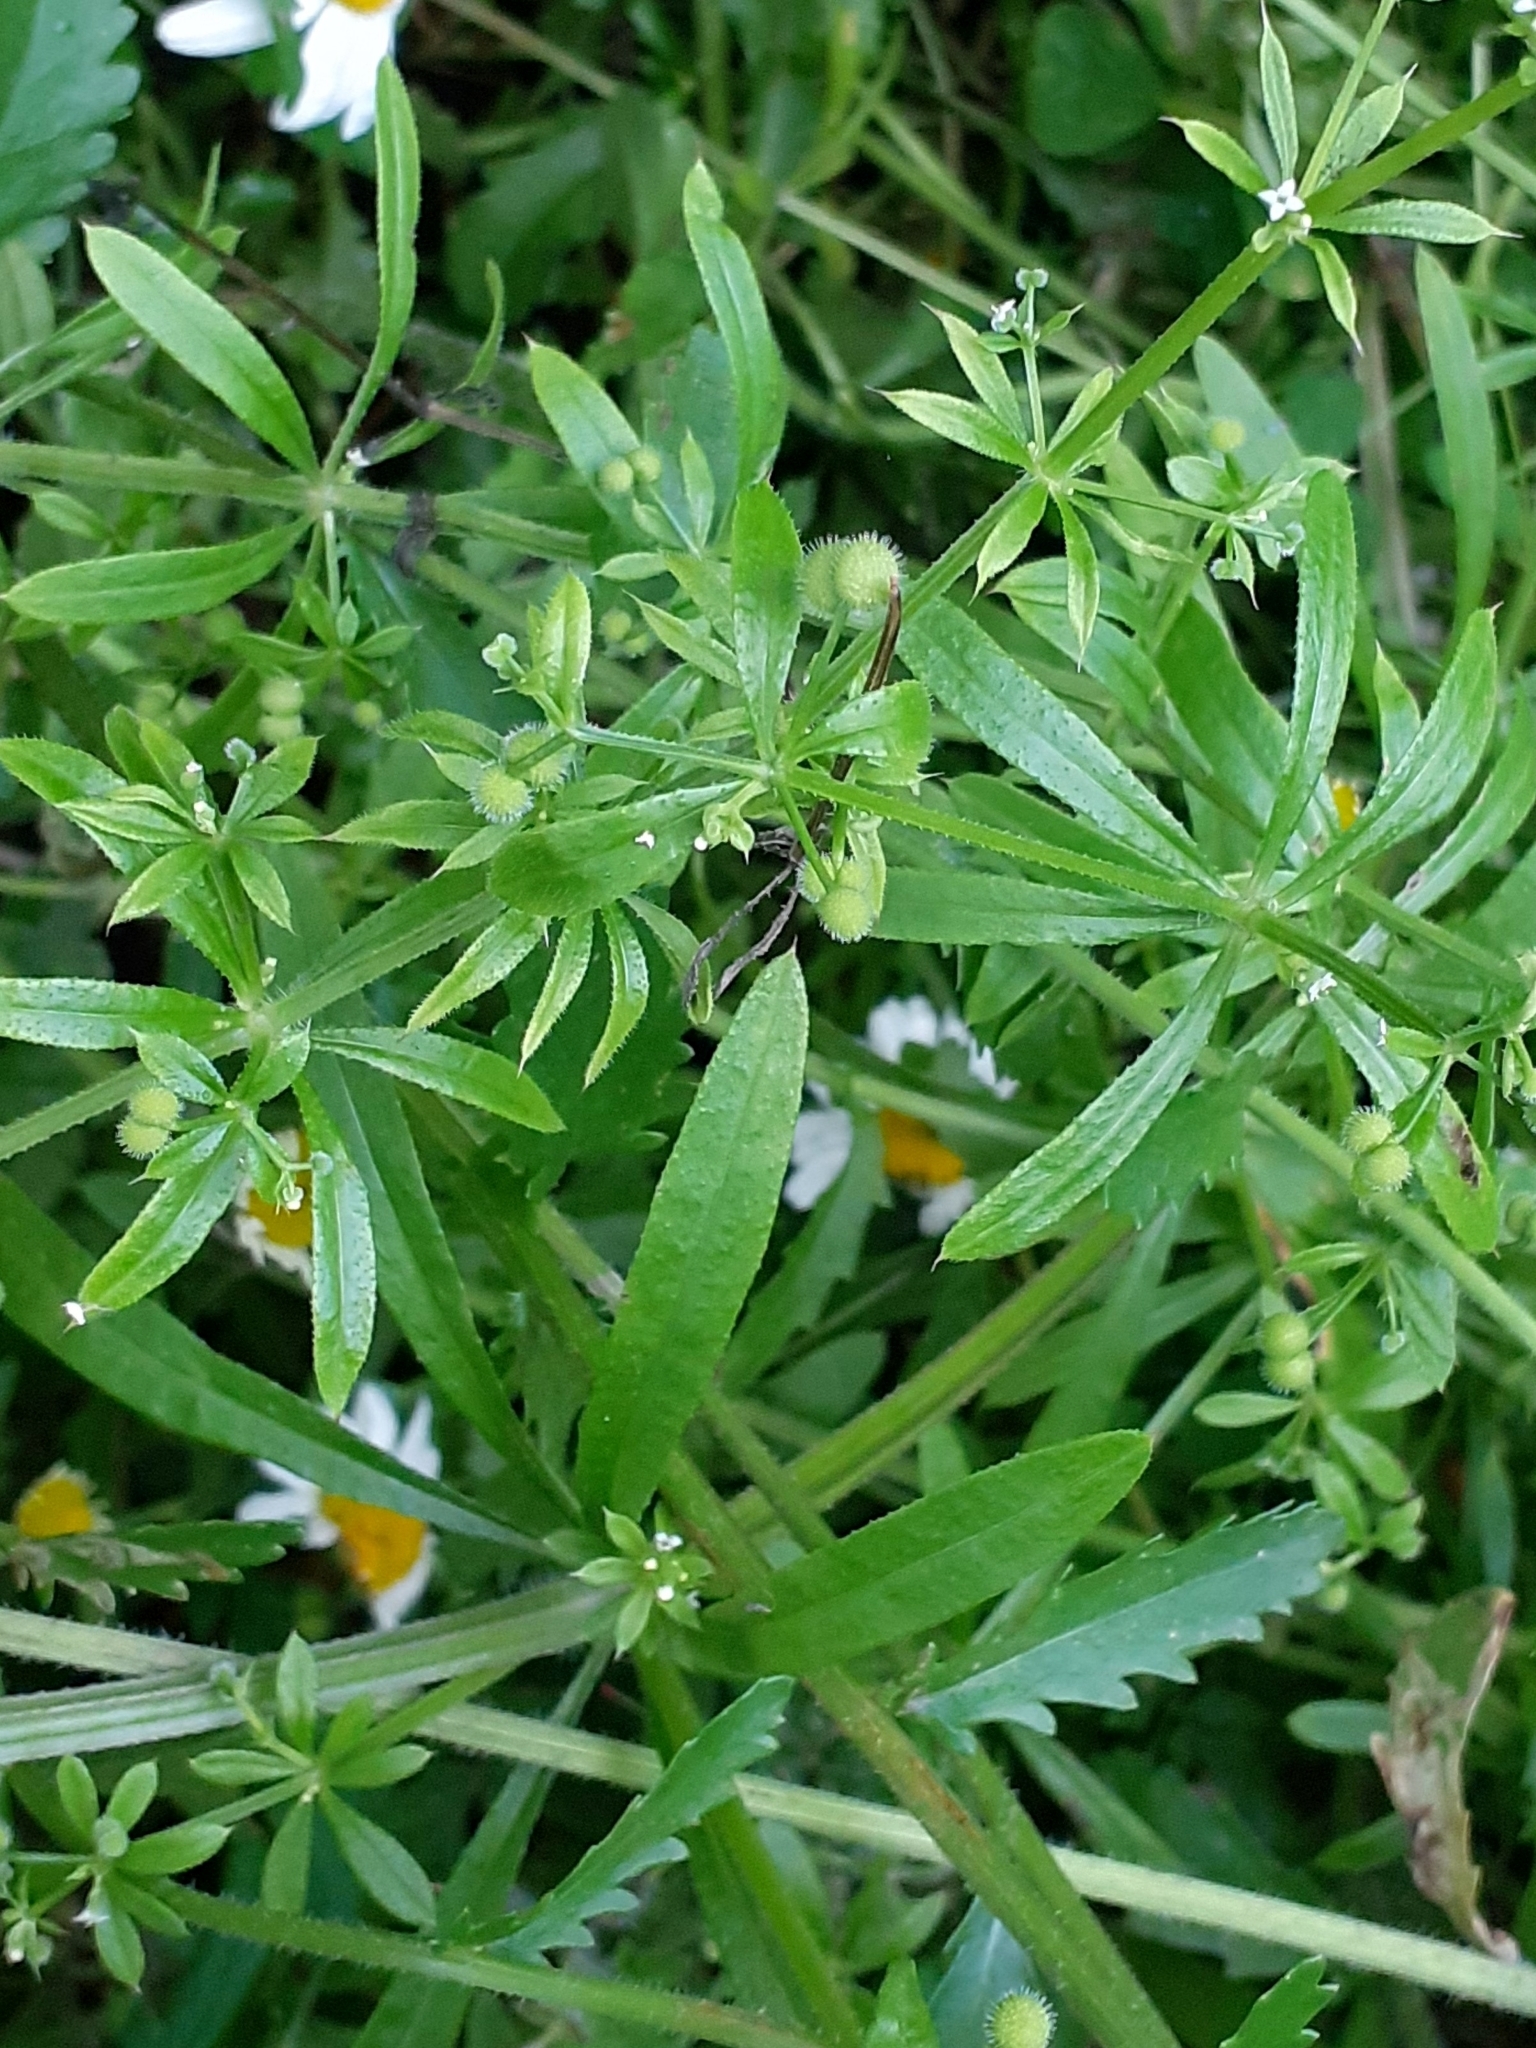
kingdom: Plantae
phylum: Tracheophyta
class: Magnoliopsida
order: Gentianales
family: Rubiaceae
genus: Galium
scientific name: Galium aparine
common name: Cleavers
